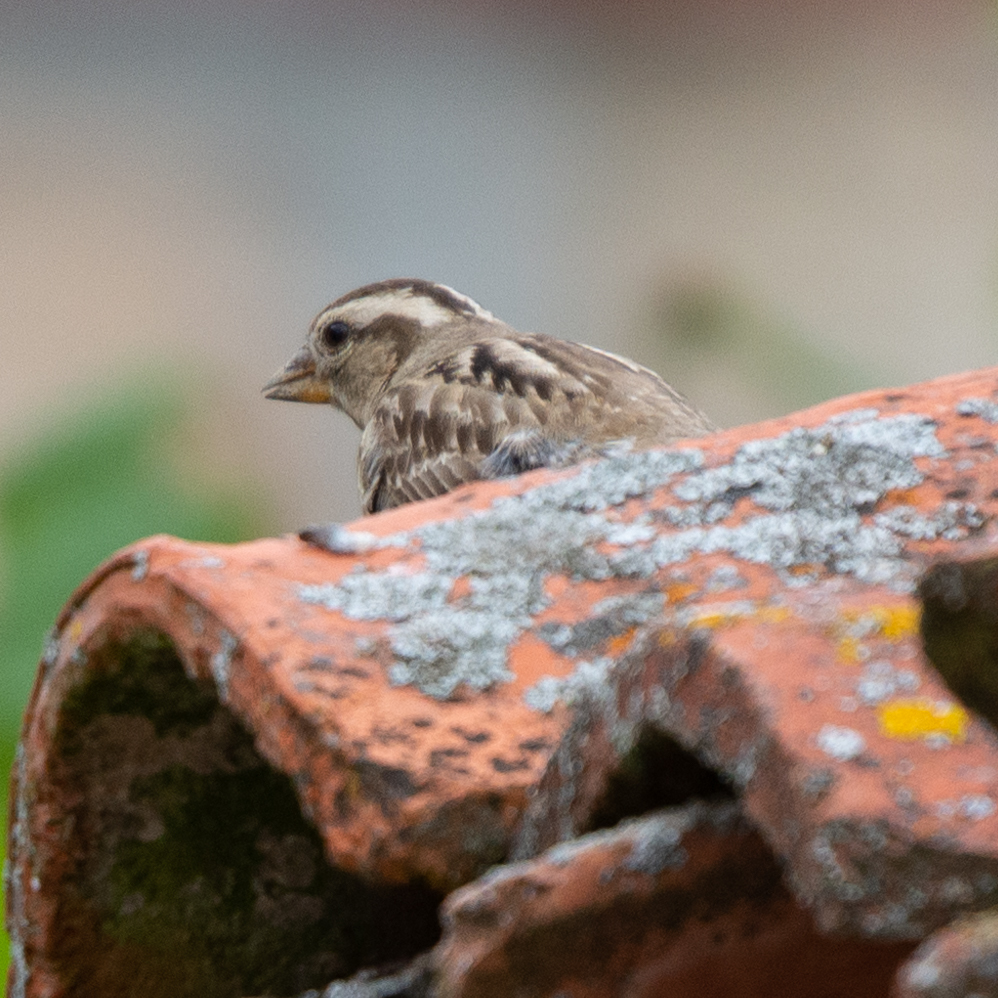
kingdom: Animalia
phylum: Chordata
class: Aves
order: Passeriformes
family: Passeridae
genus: Petronia
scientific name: Petronia petronia
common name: Rock sparrow
